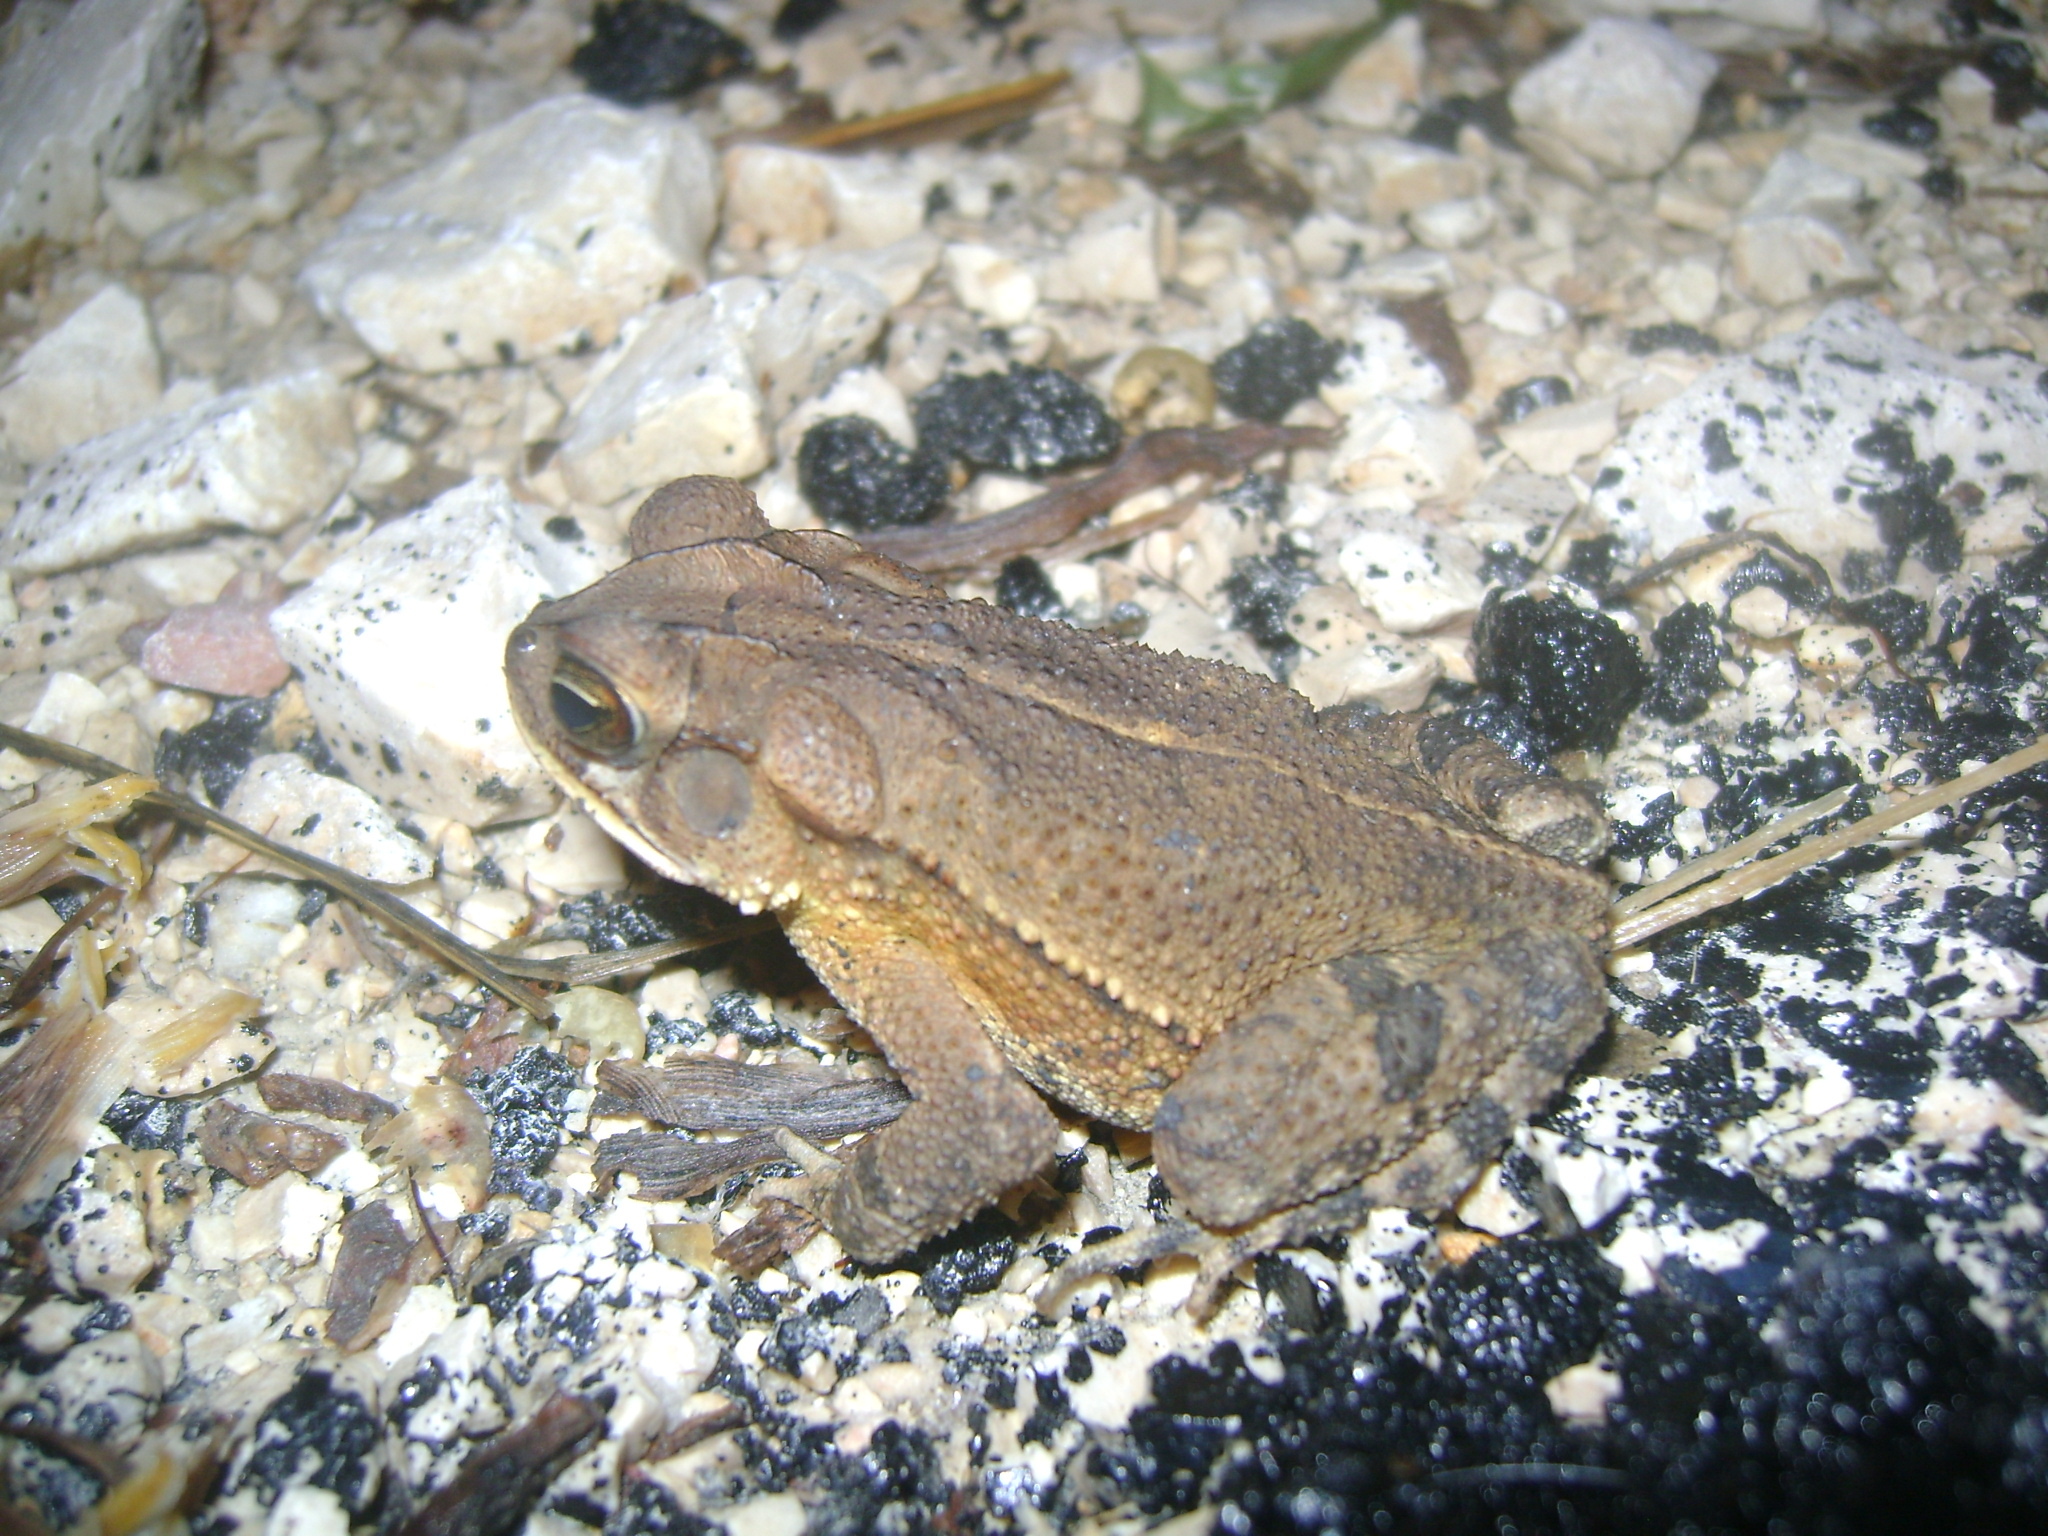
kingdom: Animalia
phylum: Chordata
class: Amphibia
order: Anura
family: Bufonidae
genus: Incilius
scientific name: Incilius valliceps
